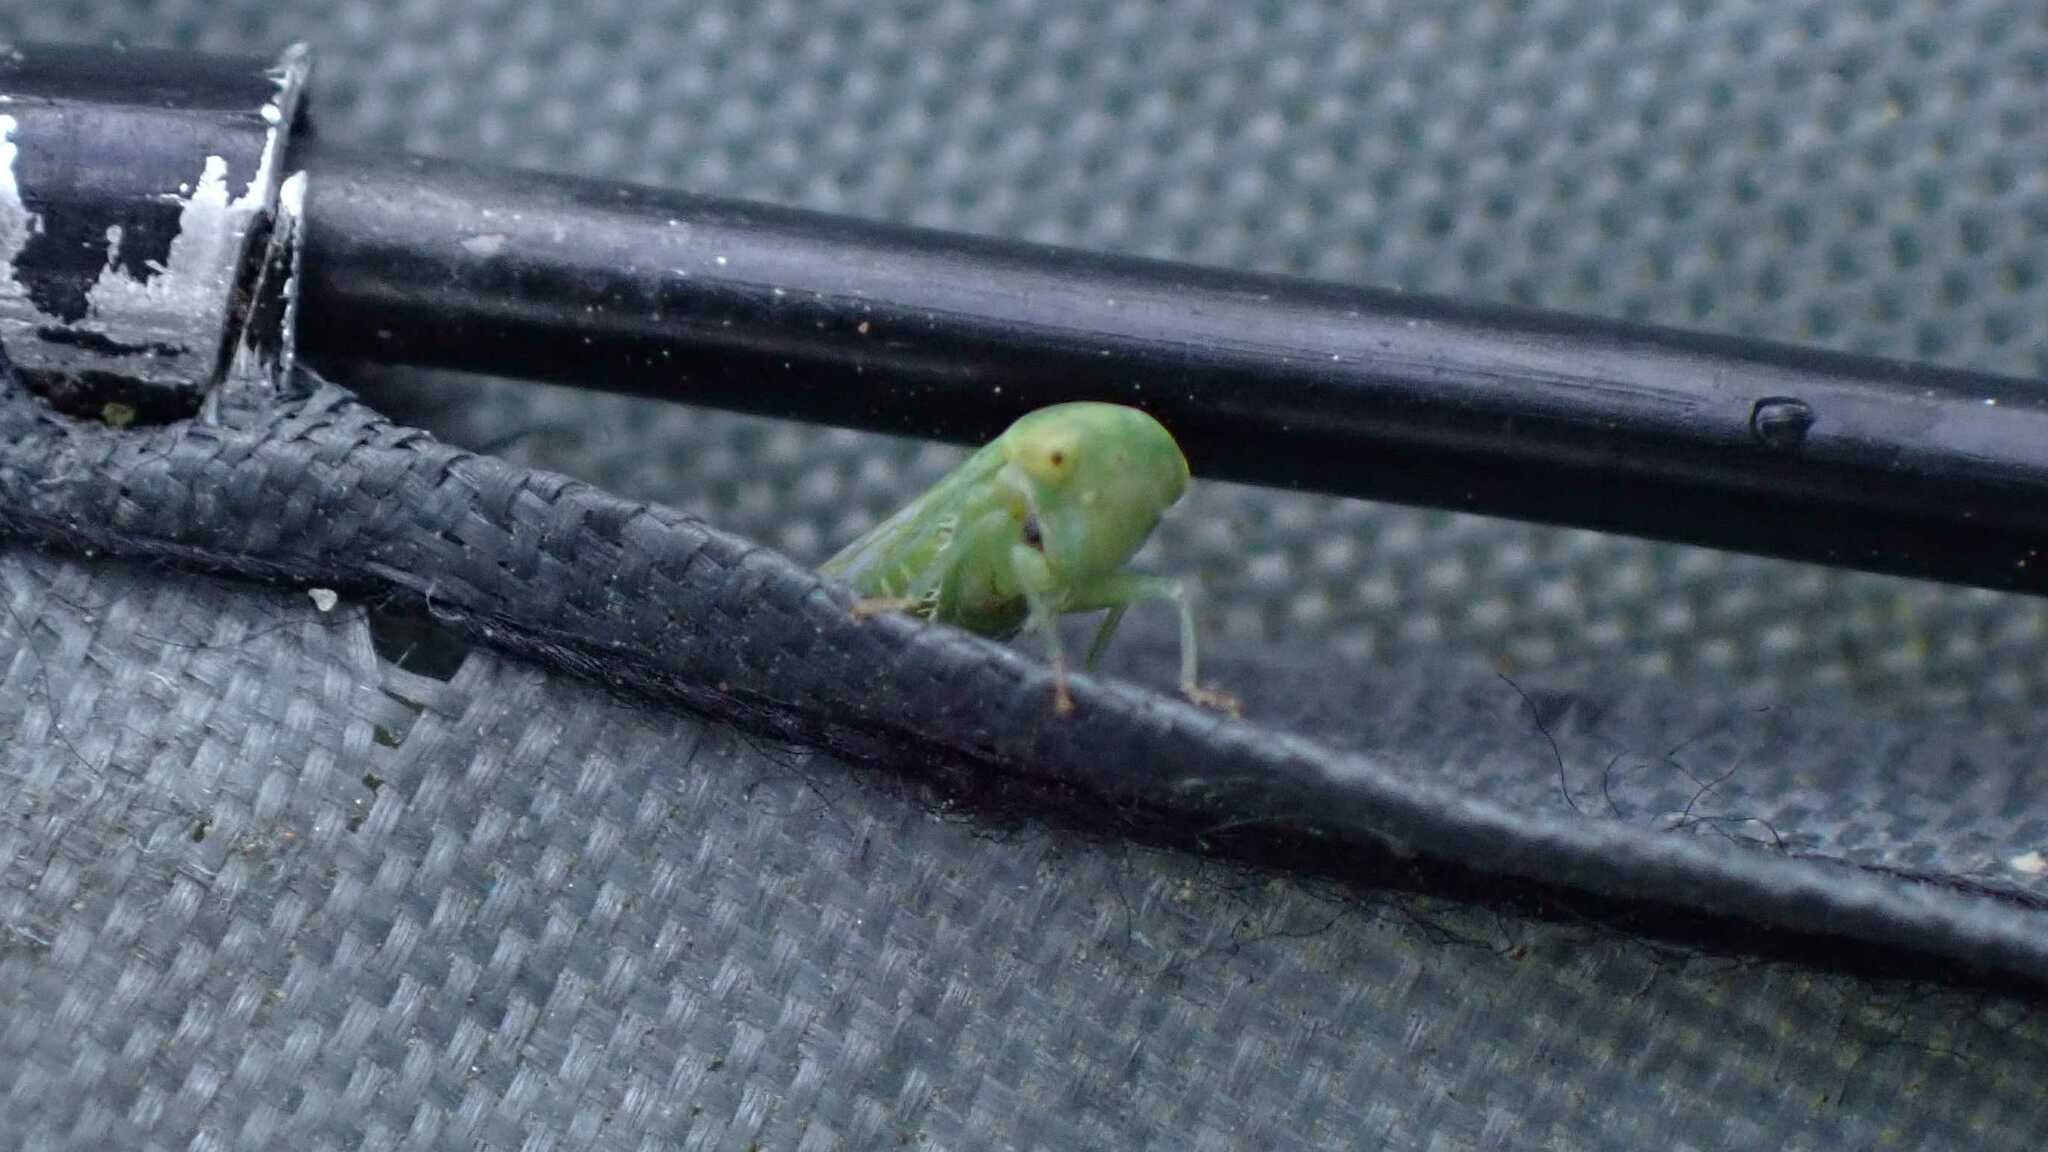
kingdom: Animalia
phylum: Arthropoda
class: Insecta
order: Hemiptera
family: Cicadellidae
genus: Viridicerus
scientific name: Viridicerus ustulatus
